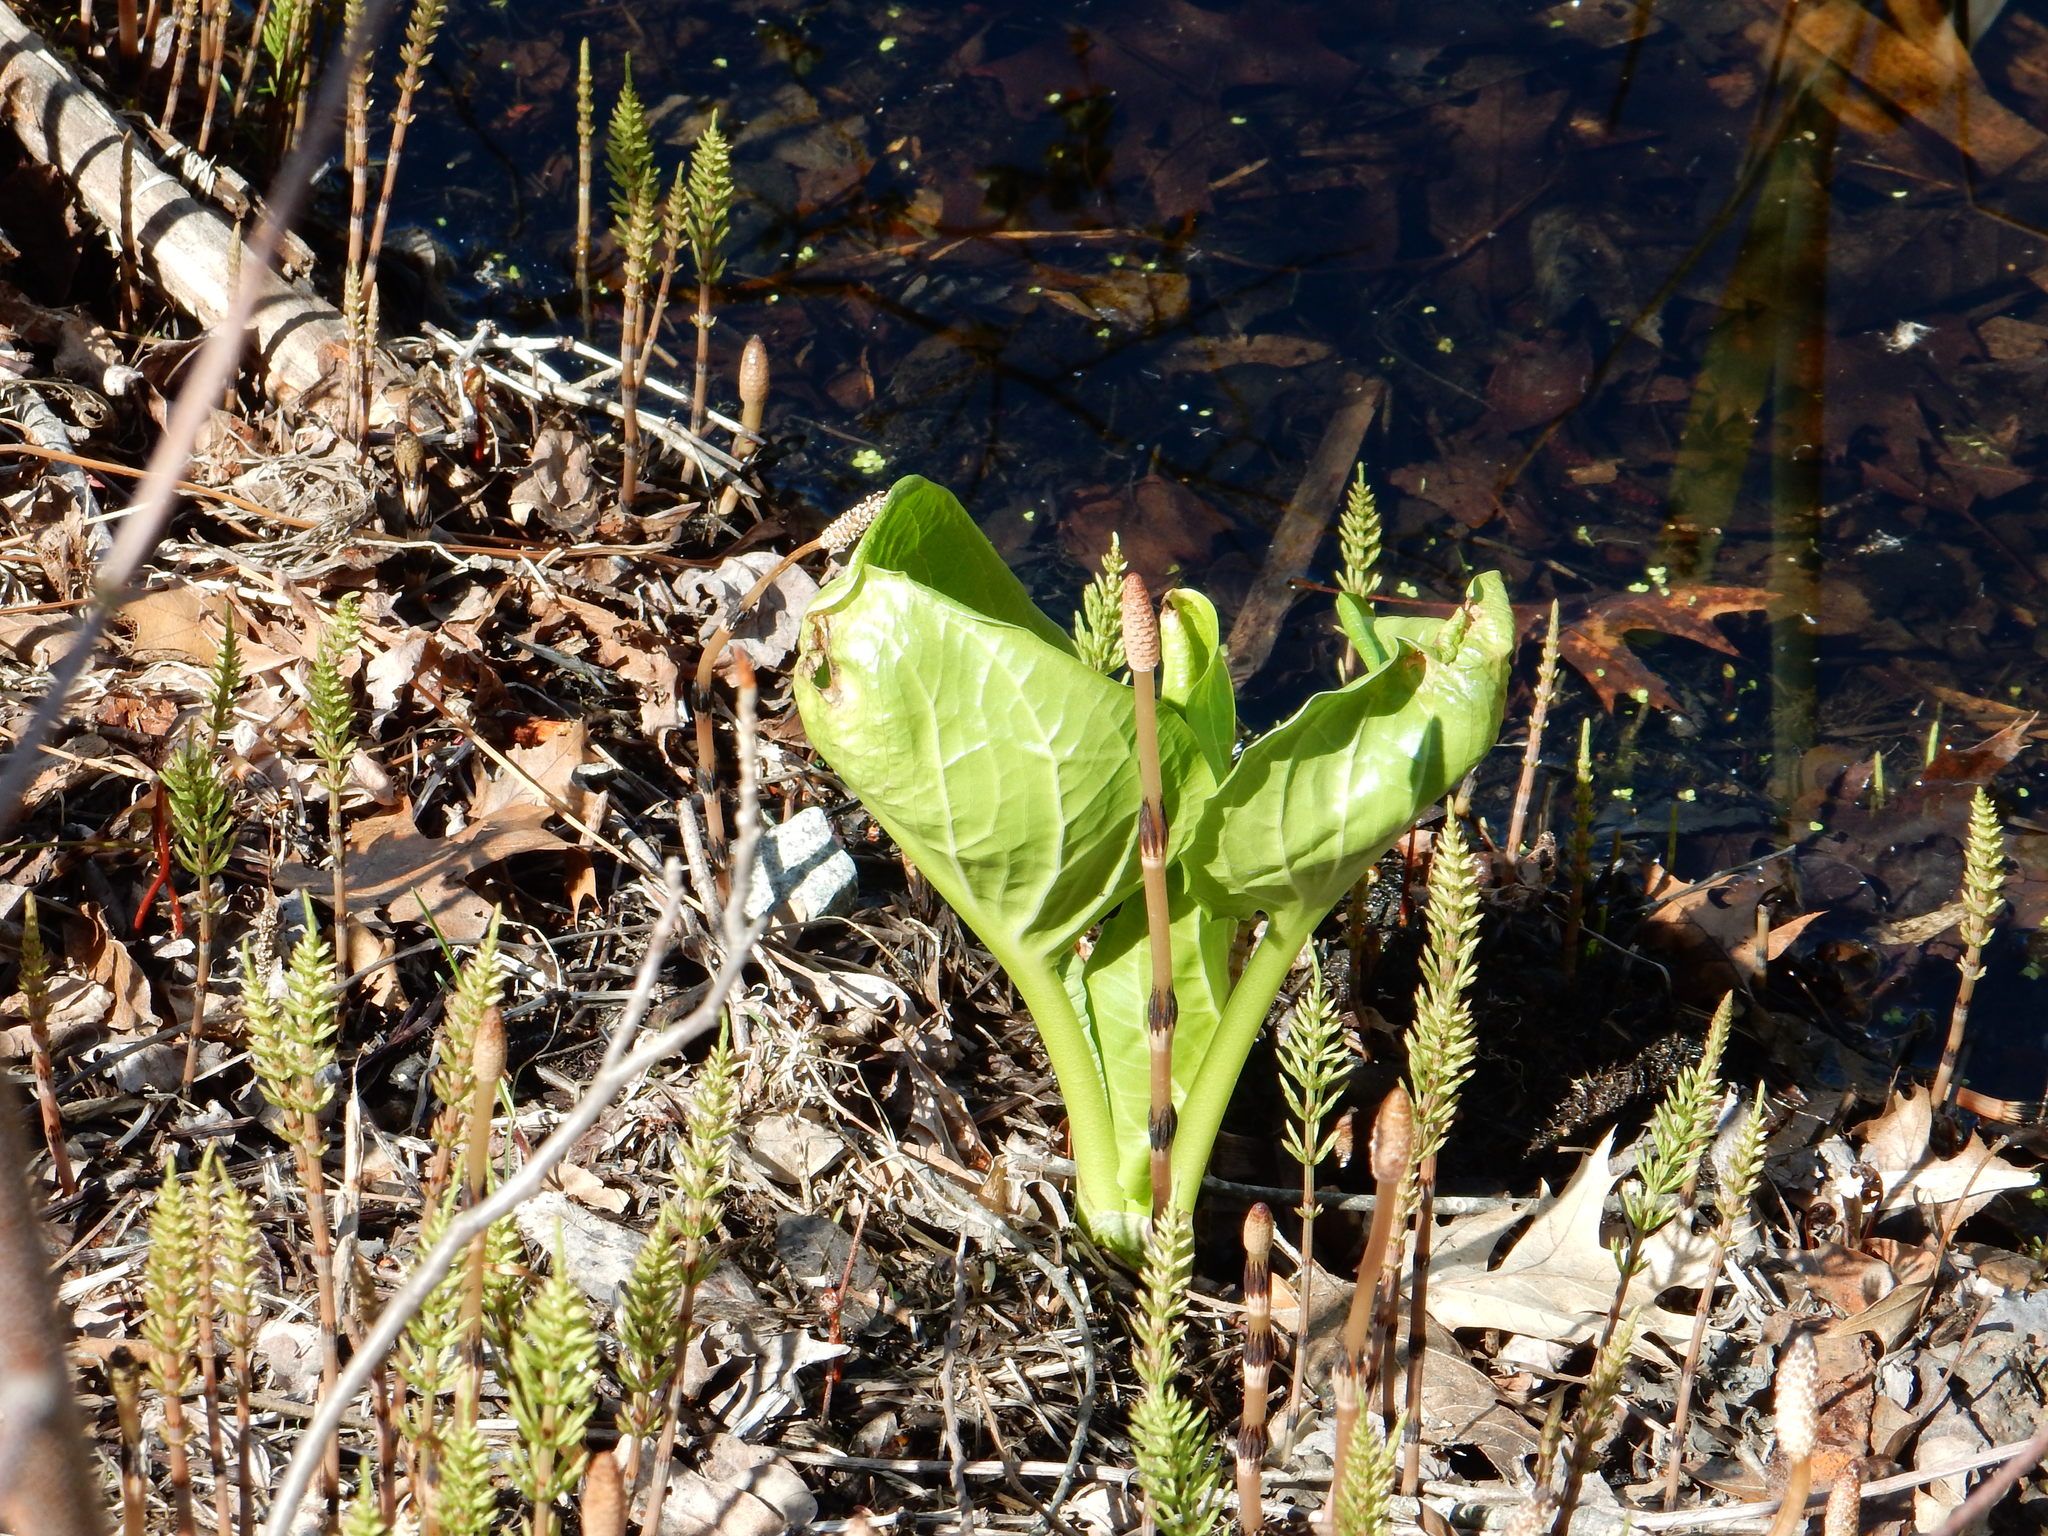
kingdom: Plantae
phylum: Tracheophyta
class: Liliopsida
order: Alismatales
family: Araceae
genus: Symplocarpus
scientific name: Symplocarpus foetidus
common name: Eastern skunk cabbage
